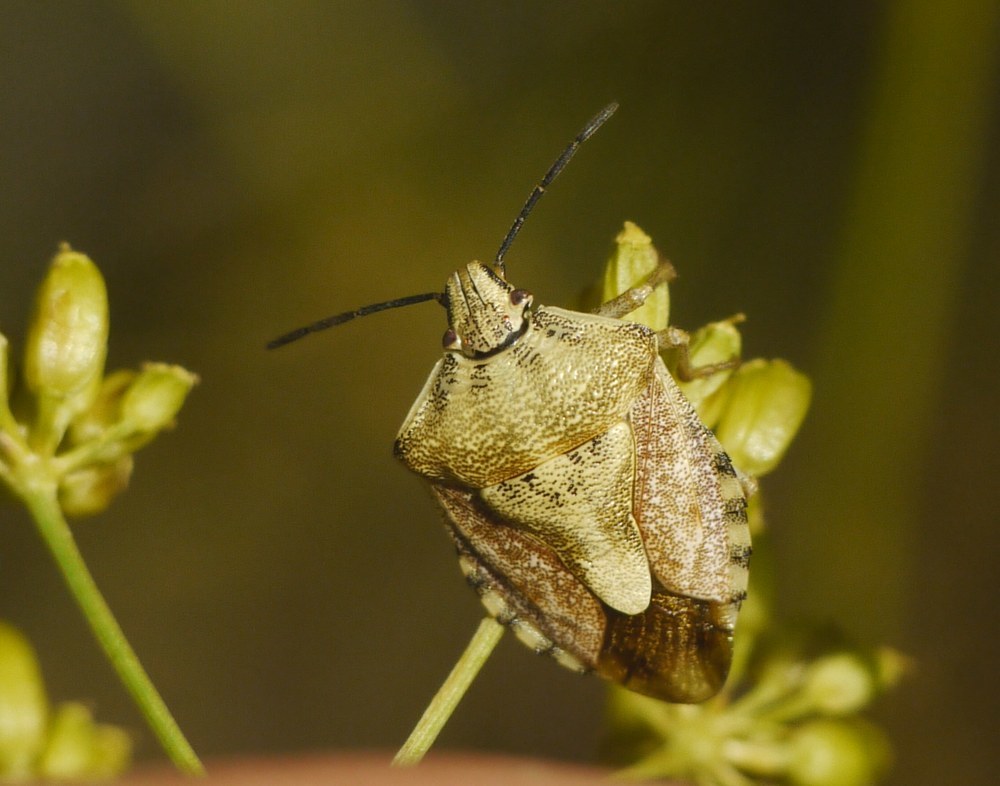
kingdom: Animalia
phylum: Arthropoda
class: Insecta
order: Hemiptera
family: Pentatomidae
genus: Carpocoris
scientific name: Carpocoris purpureipennis
